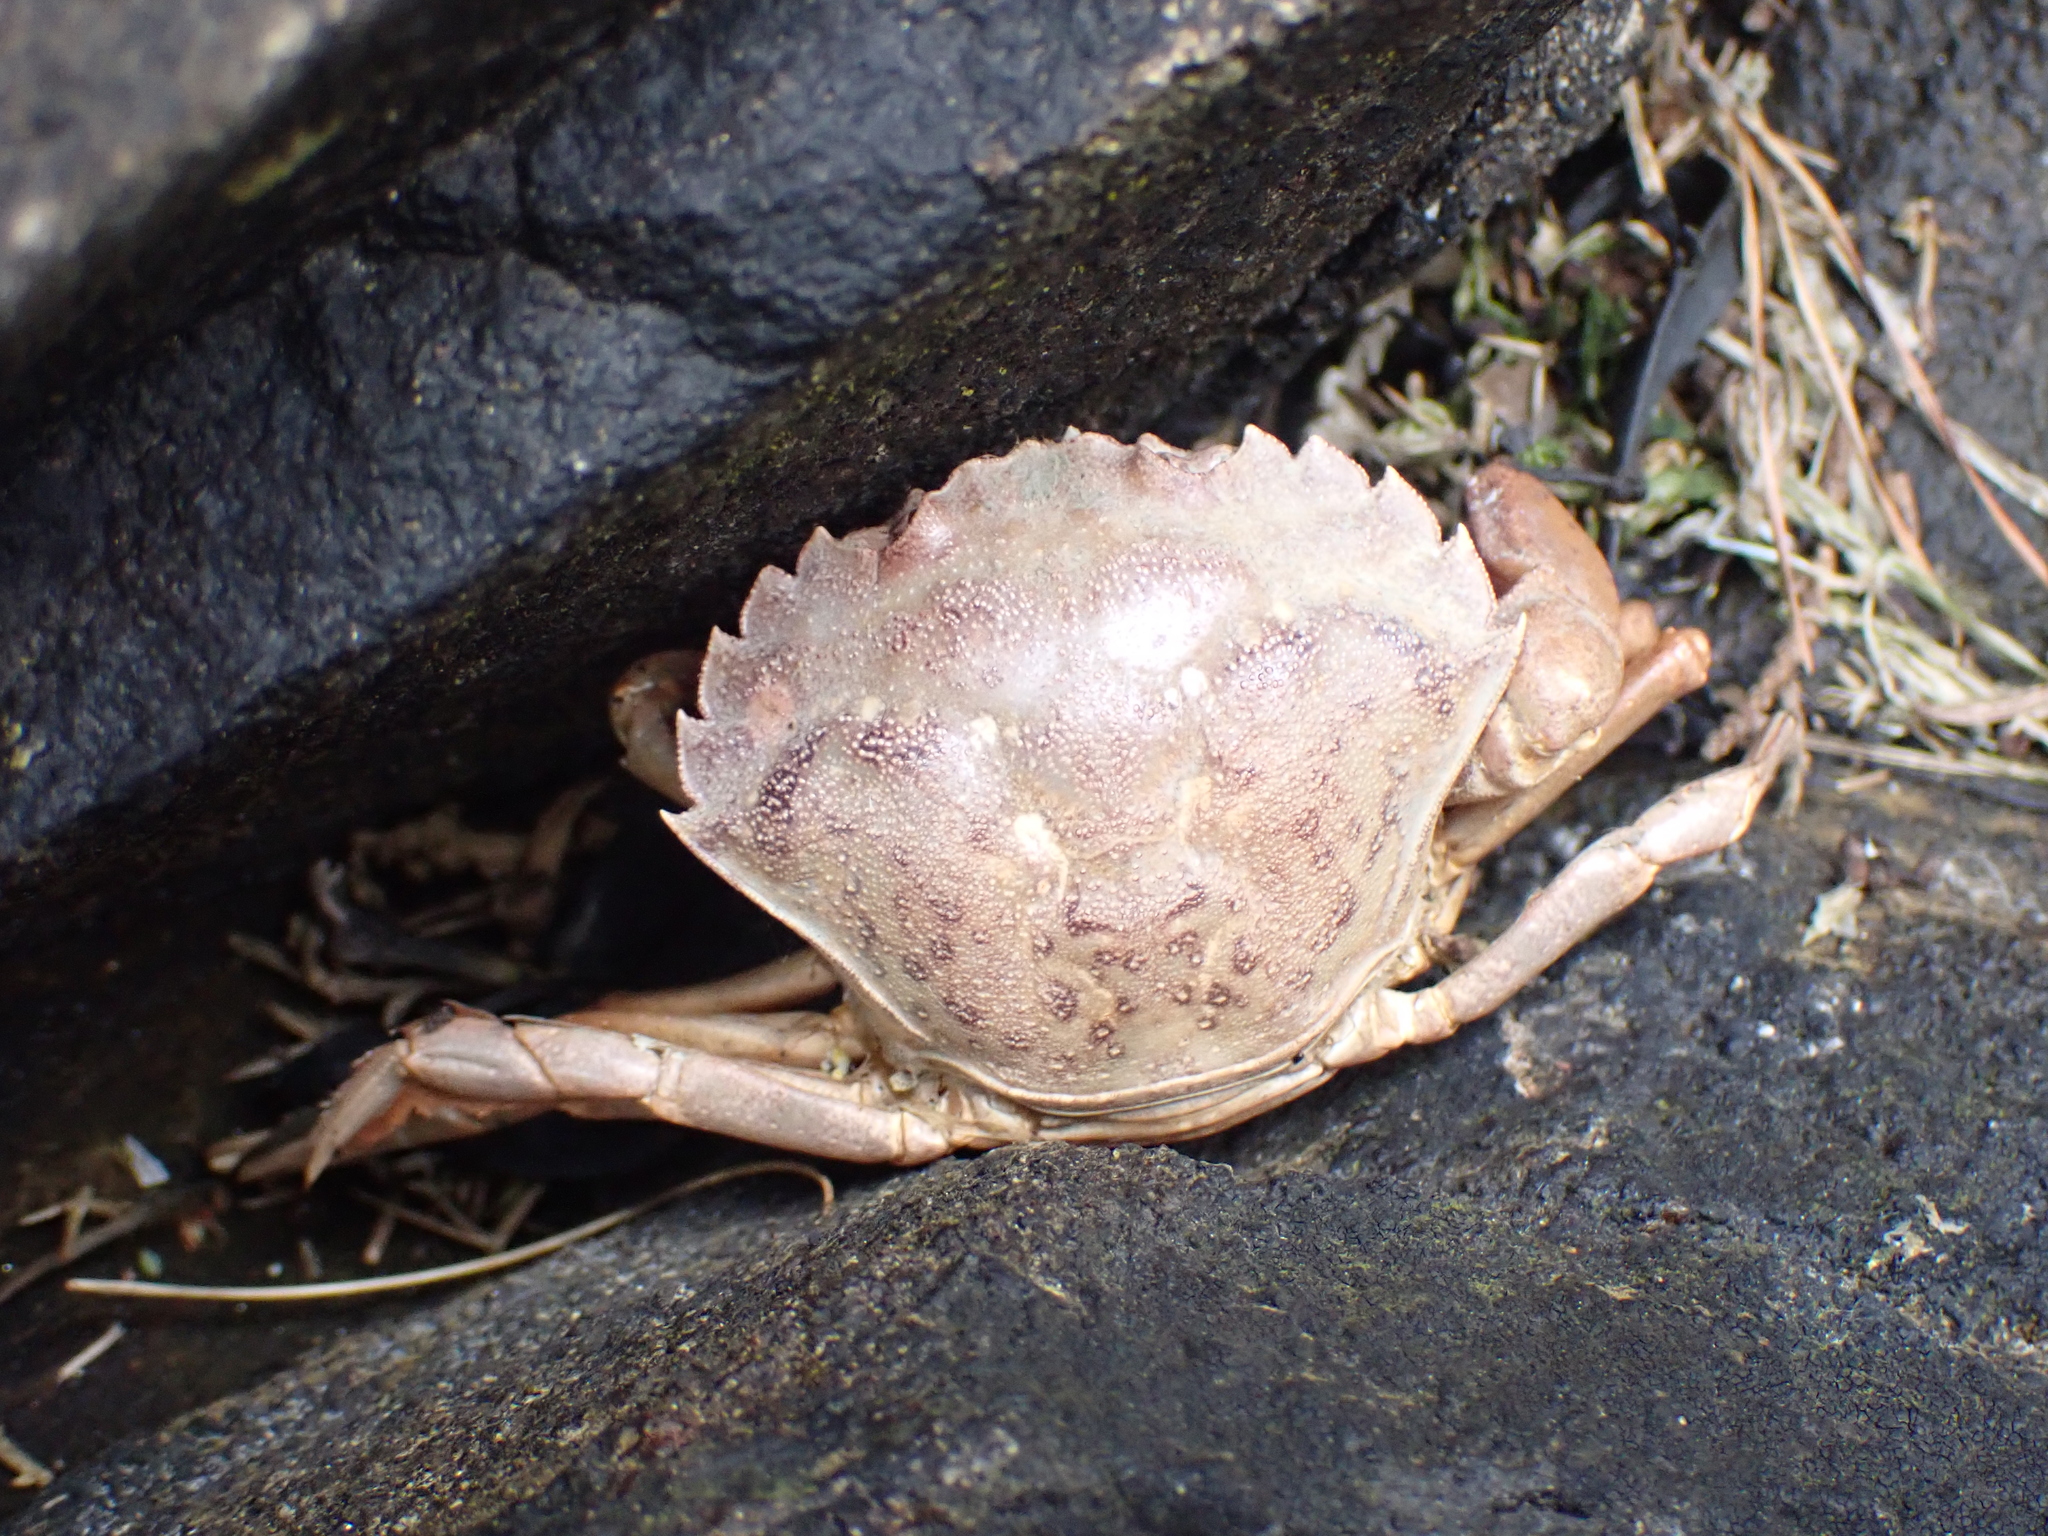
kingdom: Animalia
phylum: Arthropoda
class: Malacostraca
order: Decapoda
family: Carcinidae
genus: Carcinus
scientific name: Carcinus maenas
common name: European green crab
